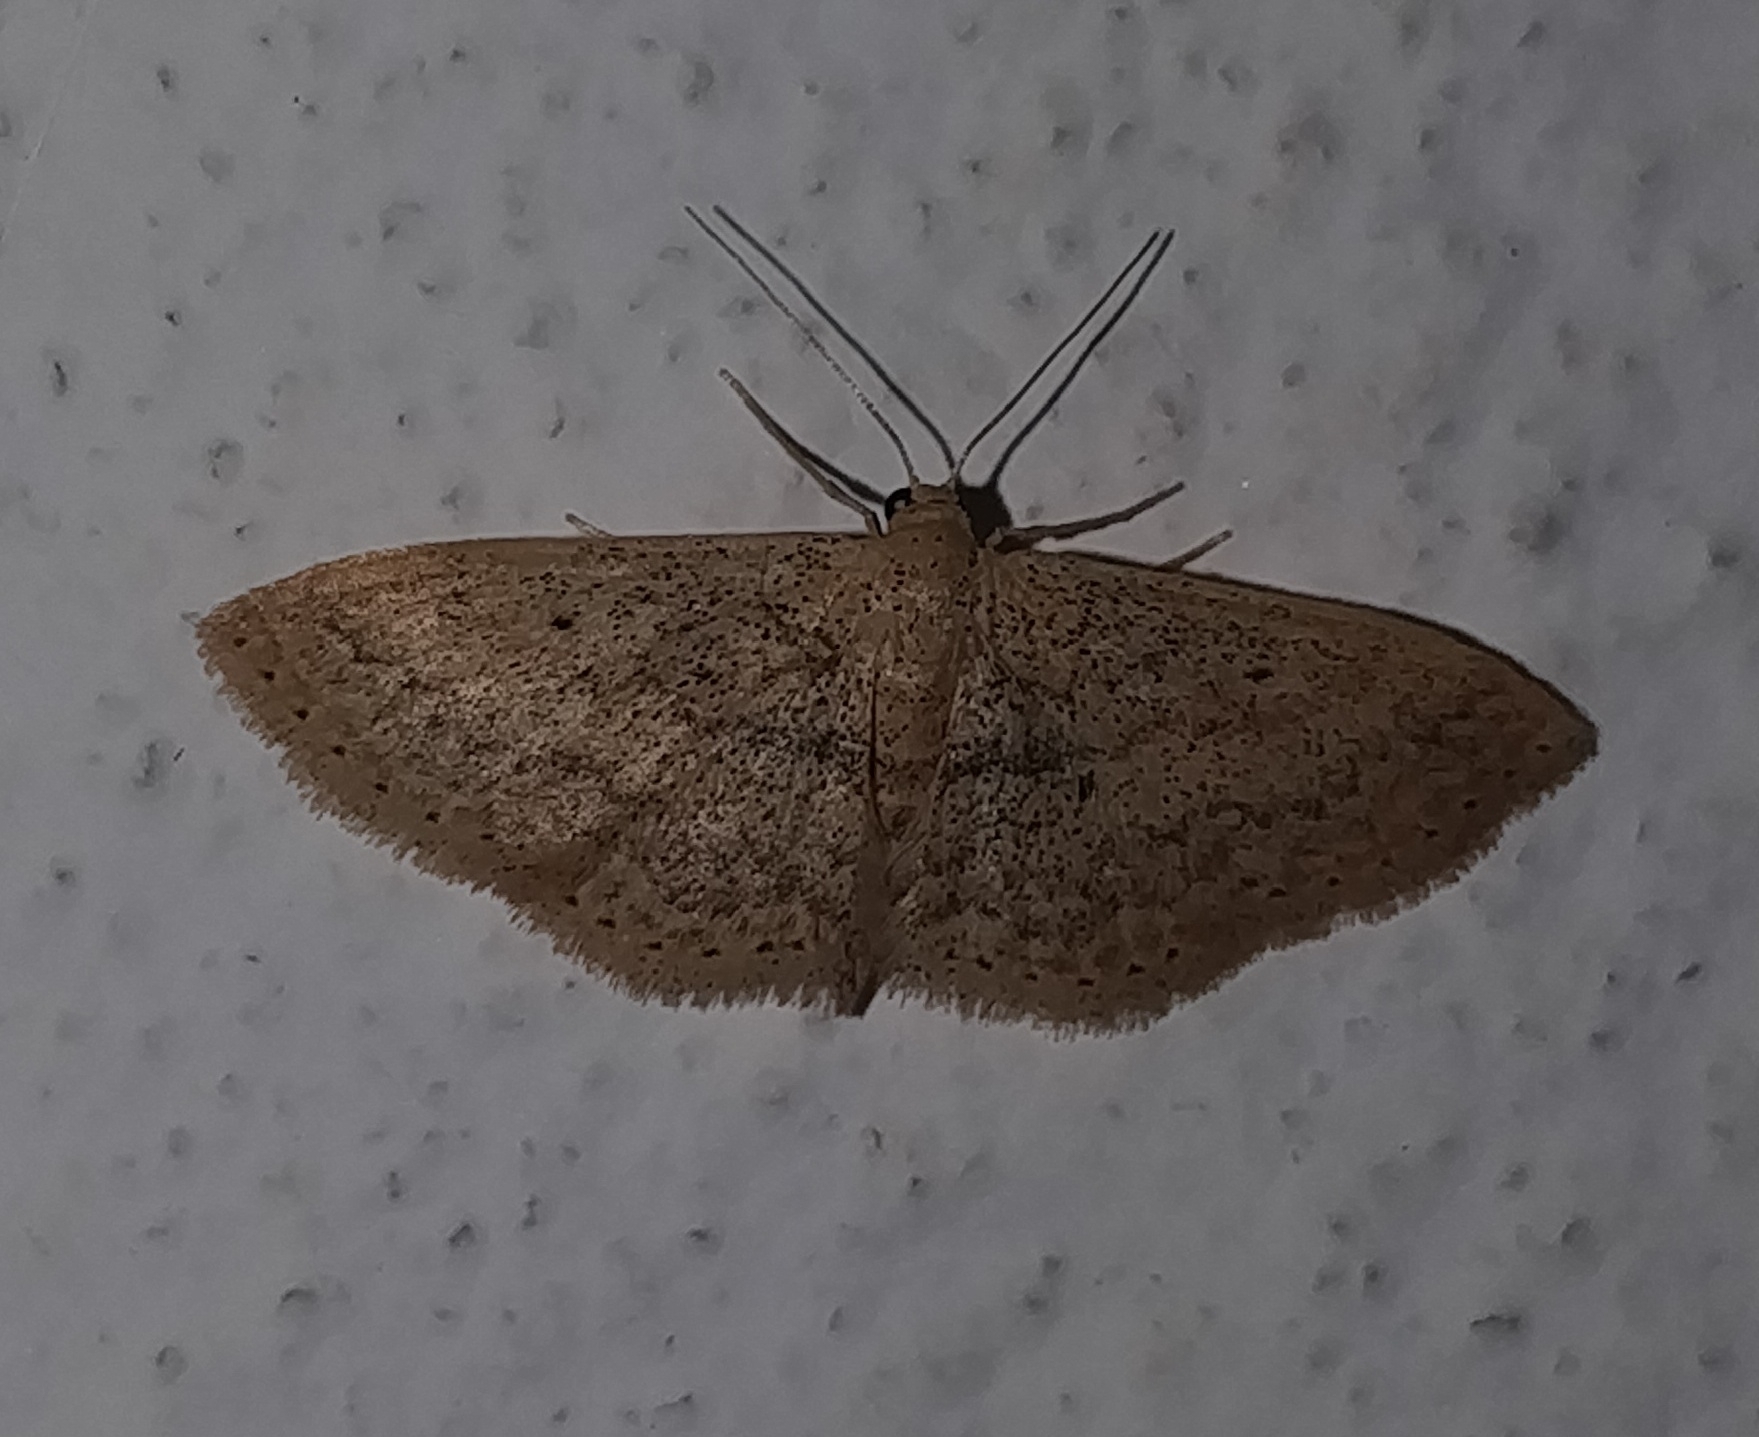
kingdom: Animalia
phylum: Arthropoda
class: Insecta
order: Lepidoptera
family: Geometridae
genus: Scopula
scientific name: Scopula guancharia
